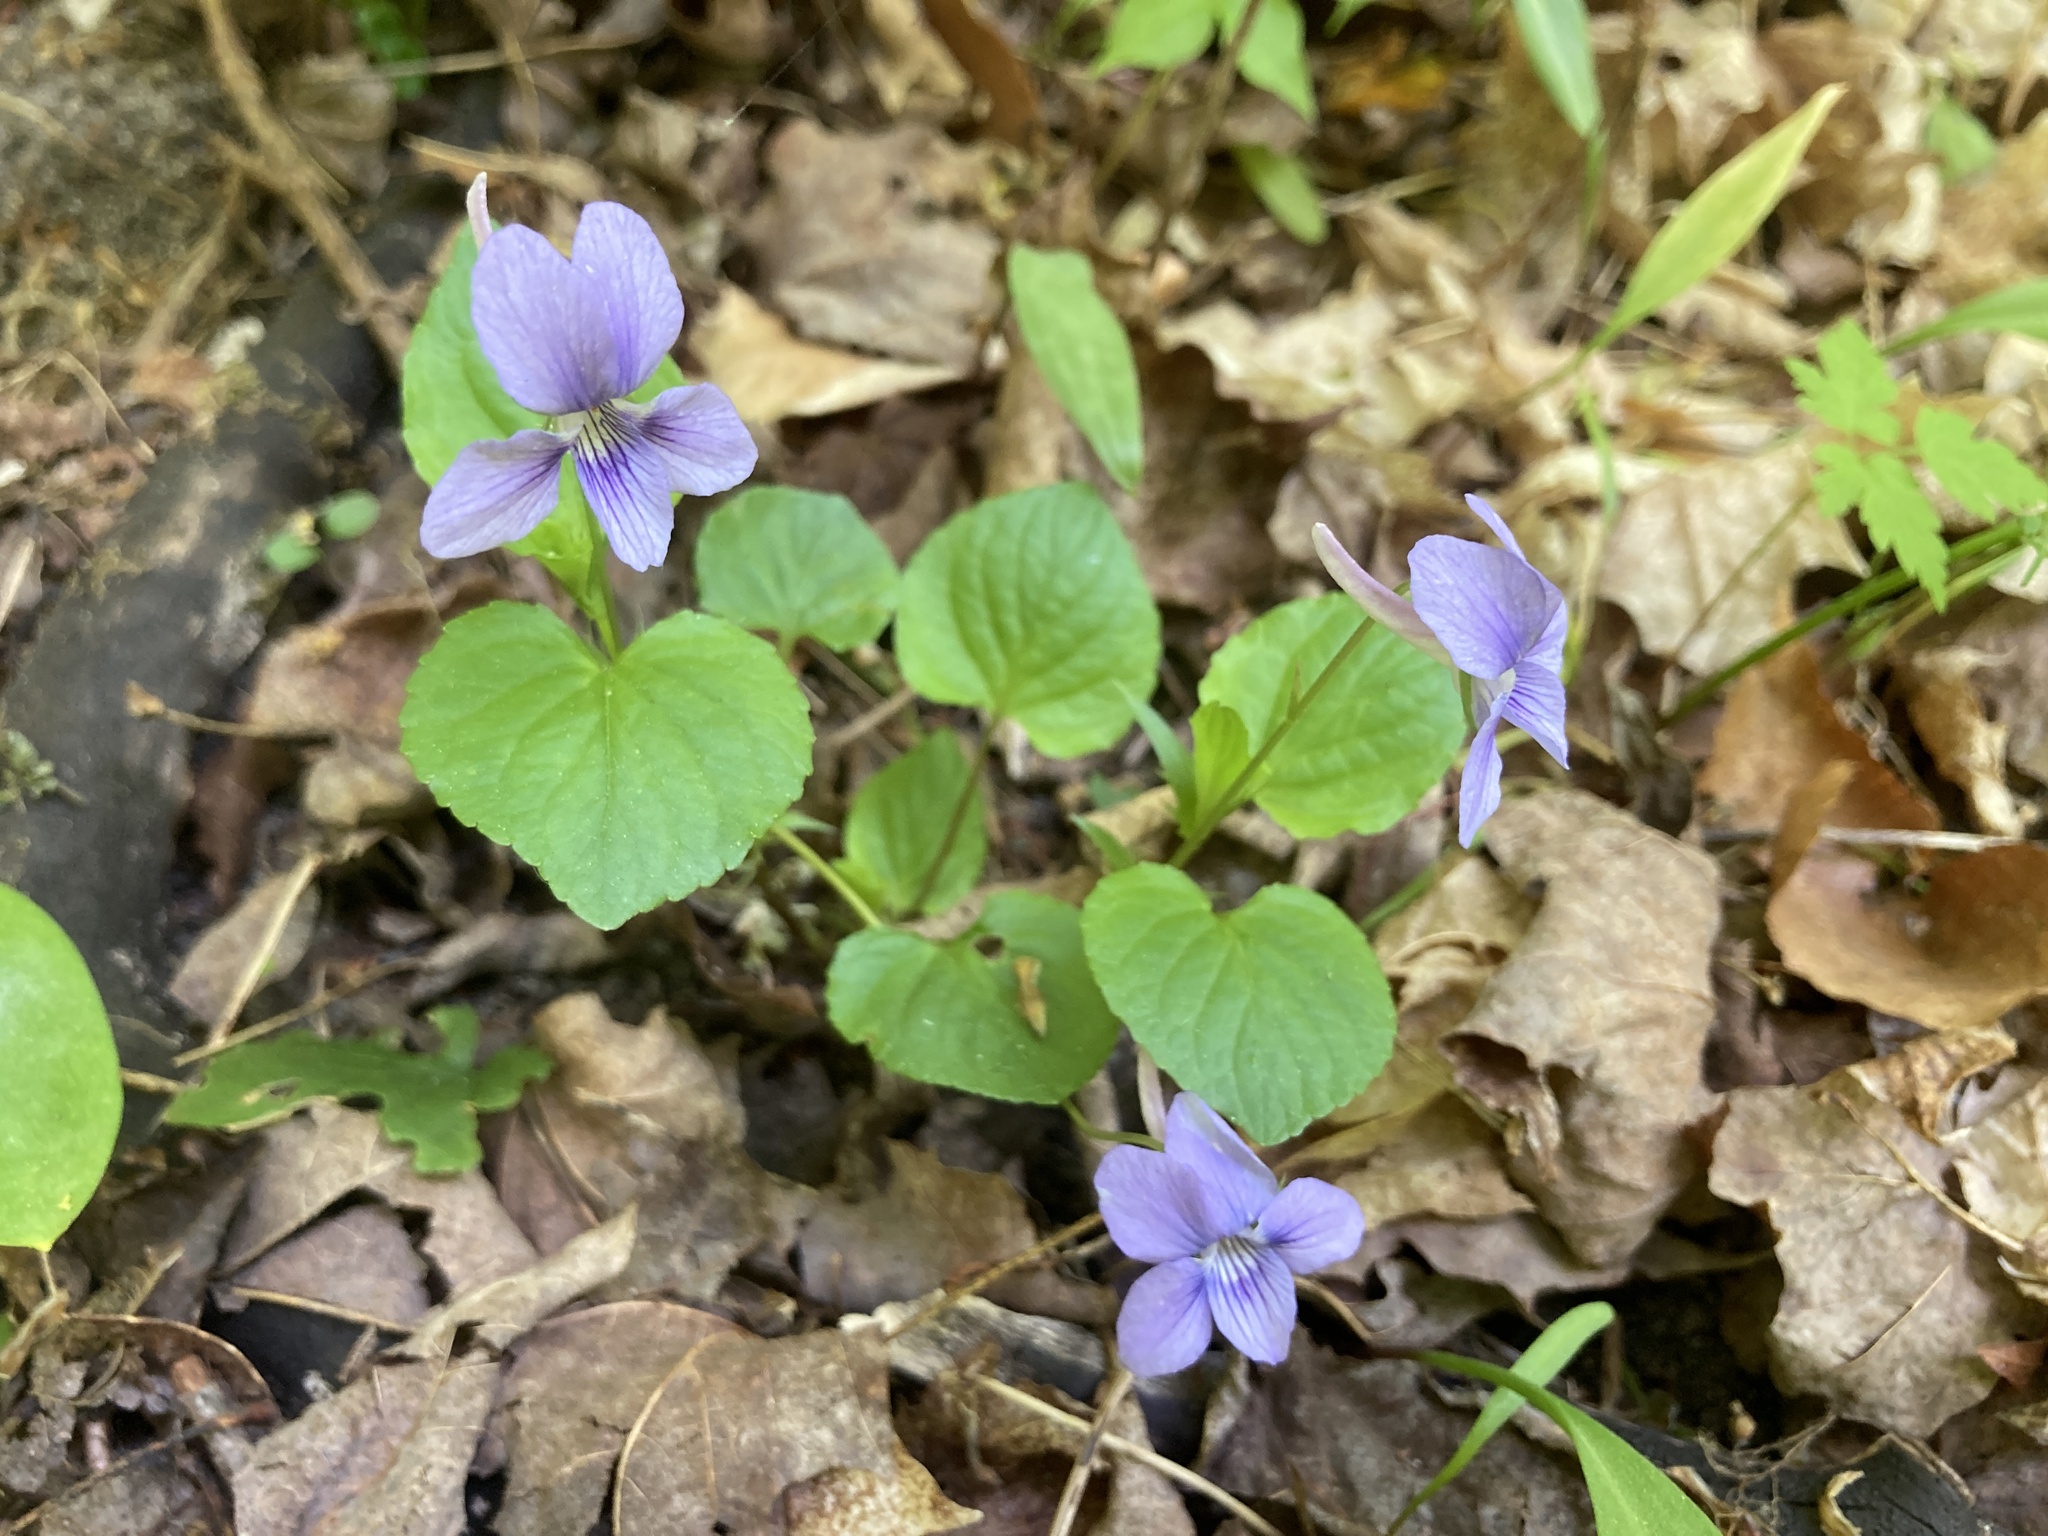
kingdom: Plantae
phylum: Tracheophyta
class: Magnoliopsida
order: Malpighiales
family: Violaceae
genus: Viola
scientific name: Viola rostrata
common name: Long-spur violet
